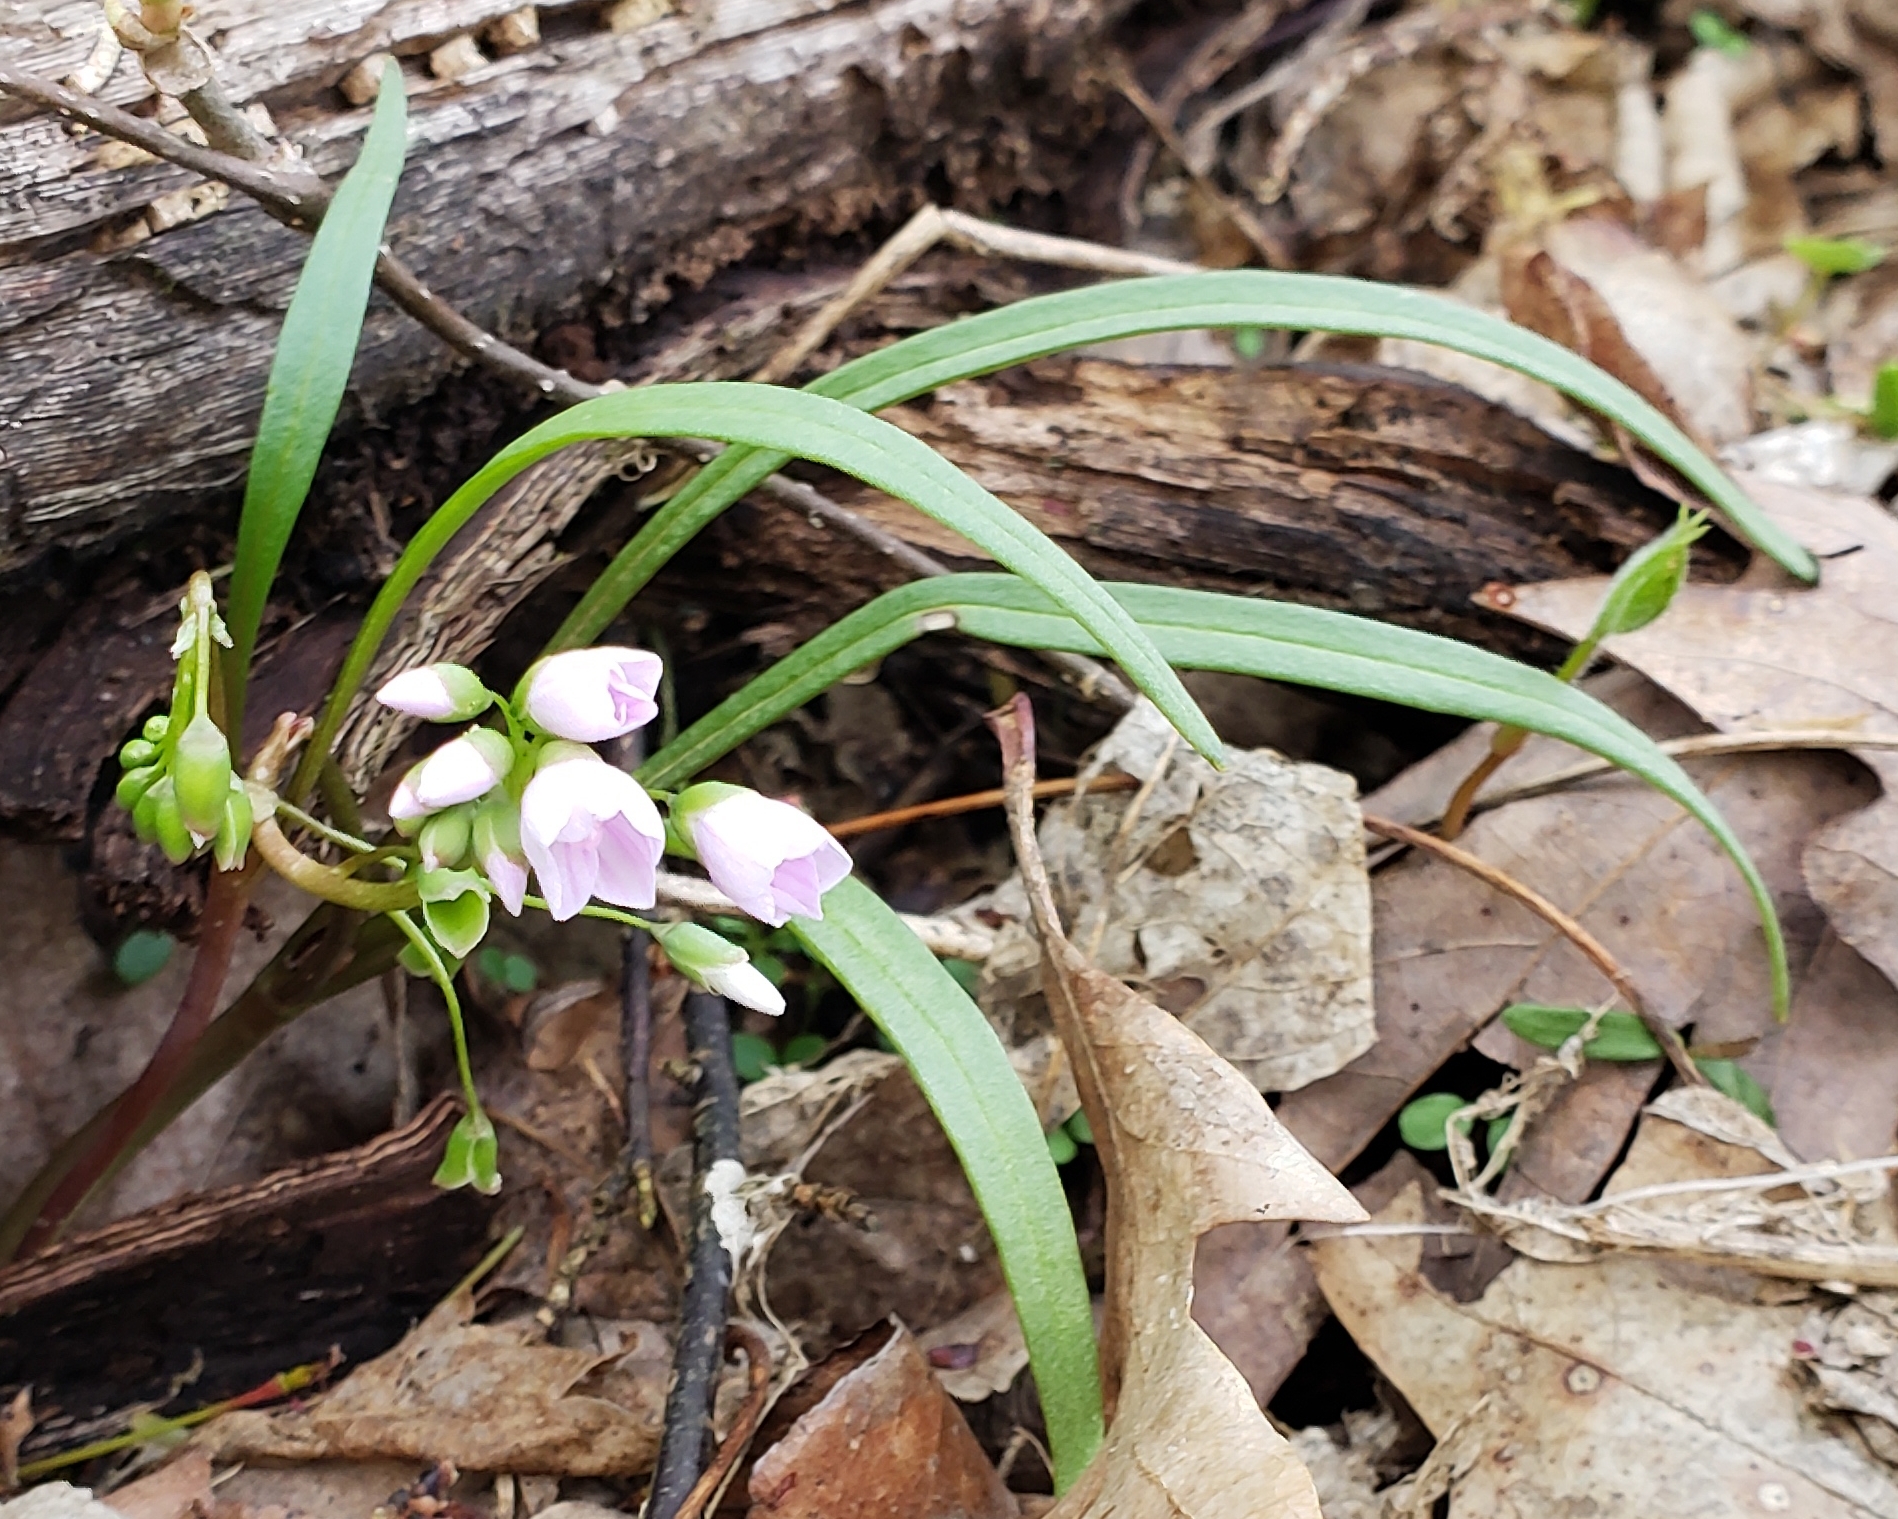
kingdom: Plantae
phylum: Tracheophyta
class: Magnoliopsida
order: Caryophyllales
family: Montiaceae
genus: Claytonia
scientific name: Claytonia virginica
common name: Virginia springbeauty
